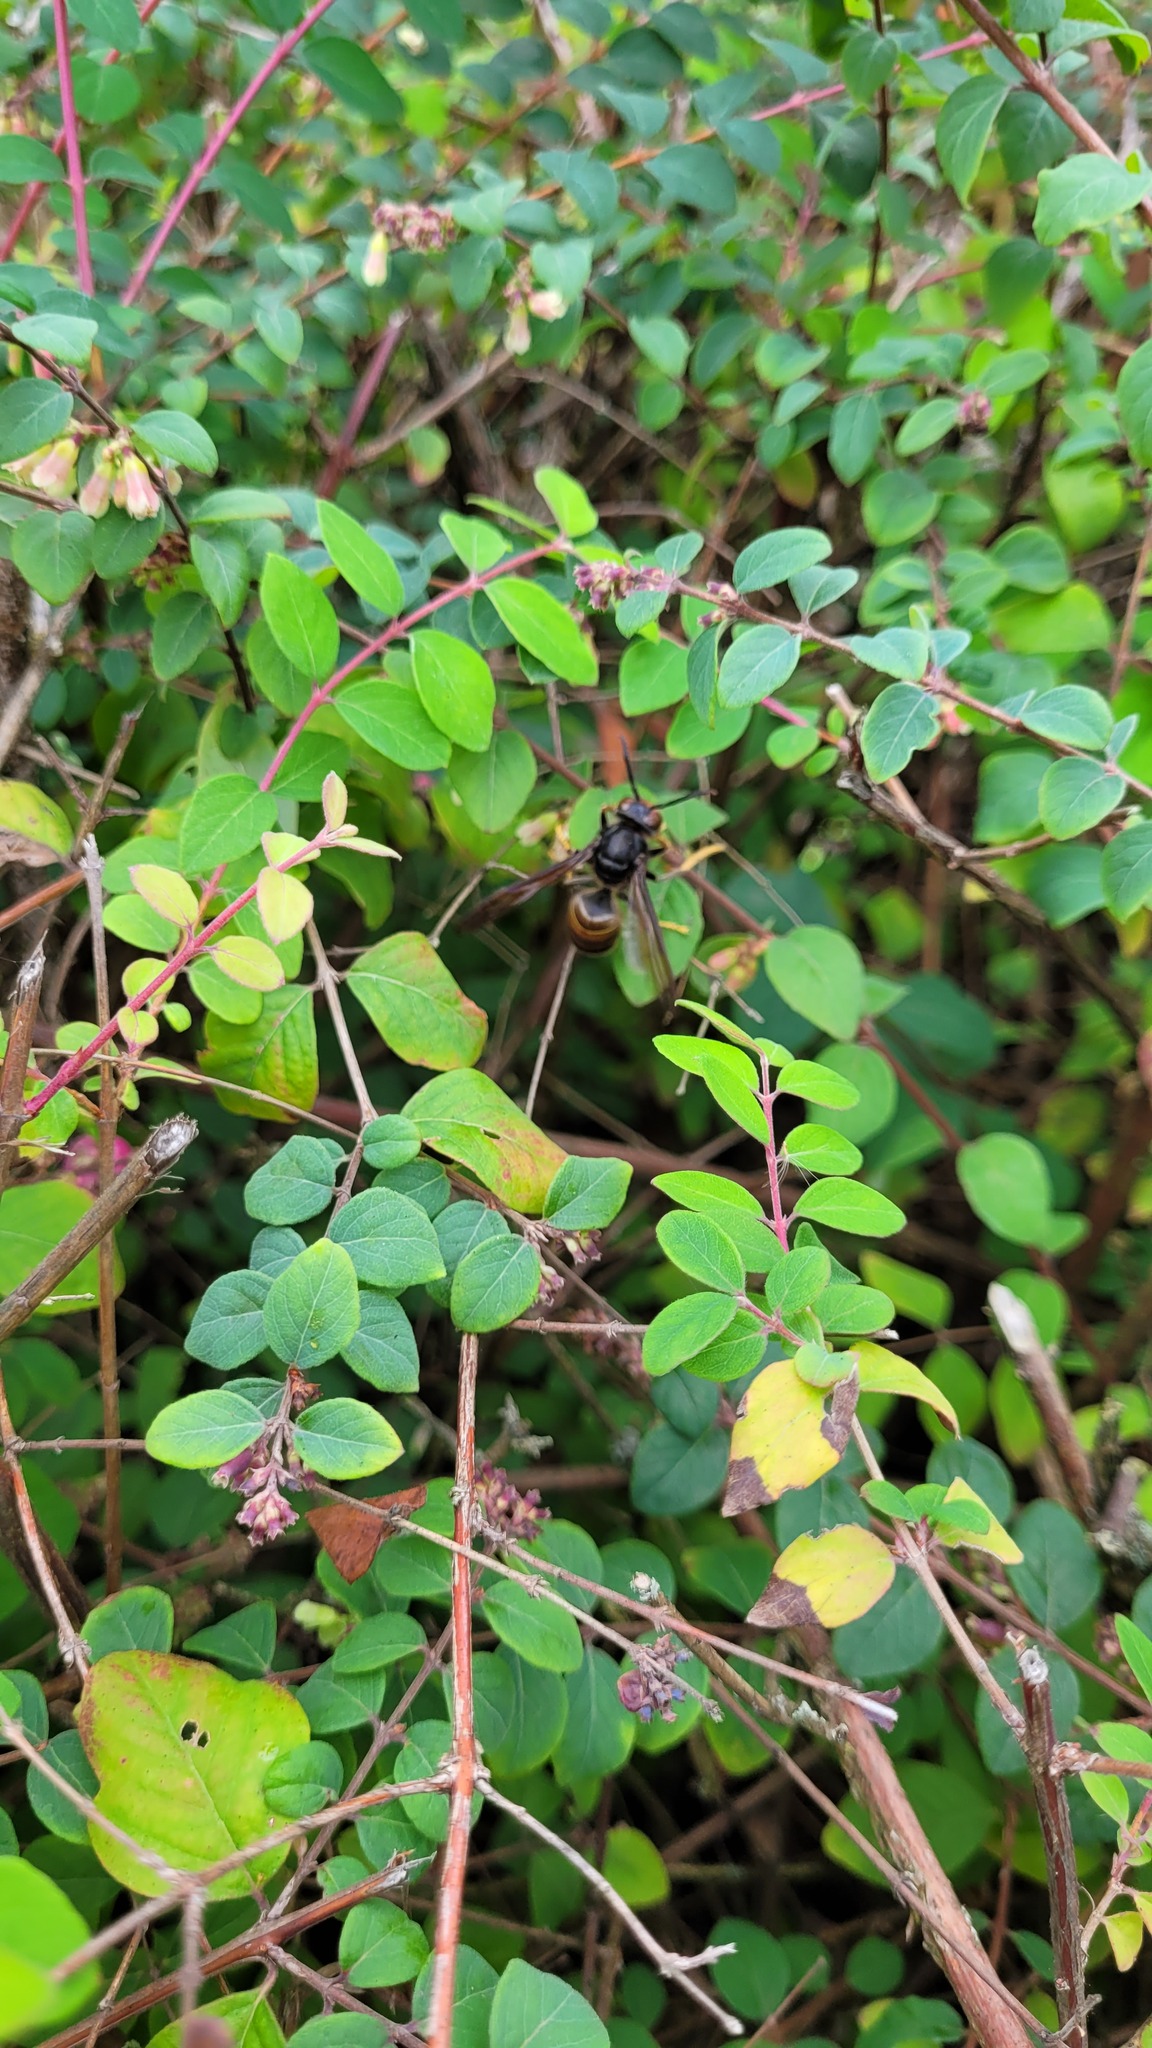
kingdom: Animalia
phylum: Arthropoda
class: Insecta
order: Hymenoptera
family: Vespidae
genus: Vespa
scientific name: Vespa velutina
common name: Asian hornet
